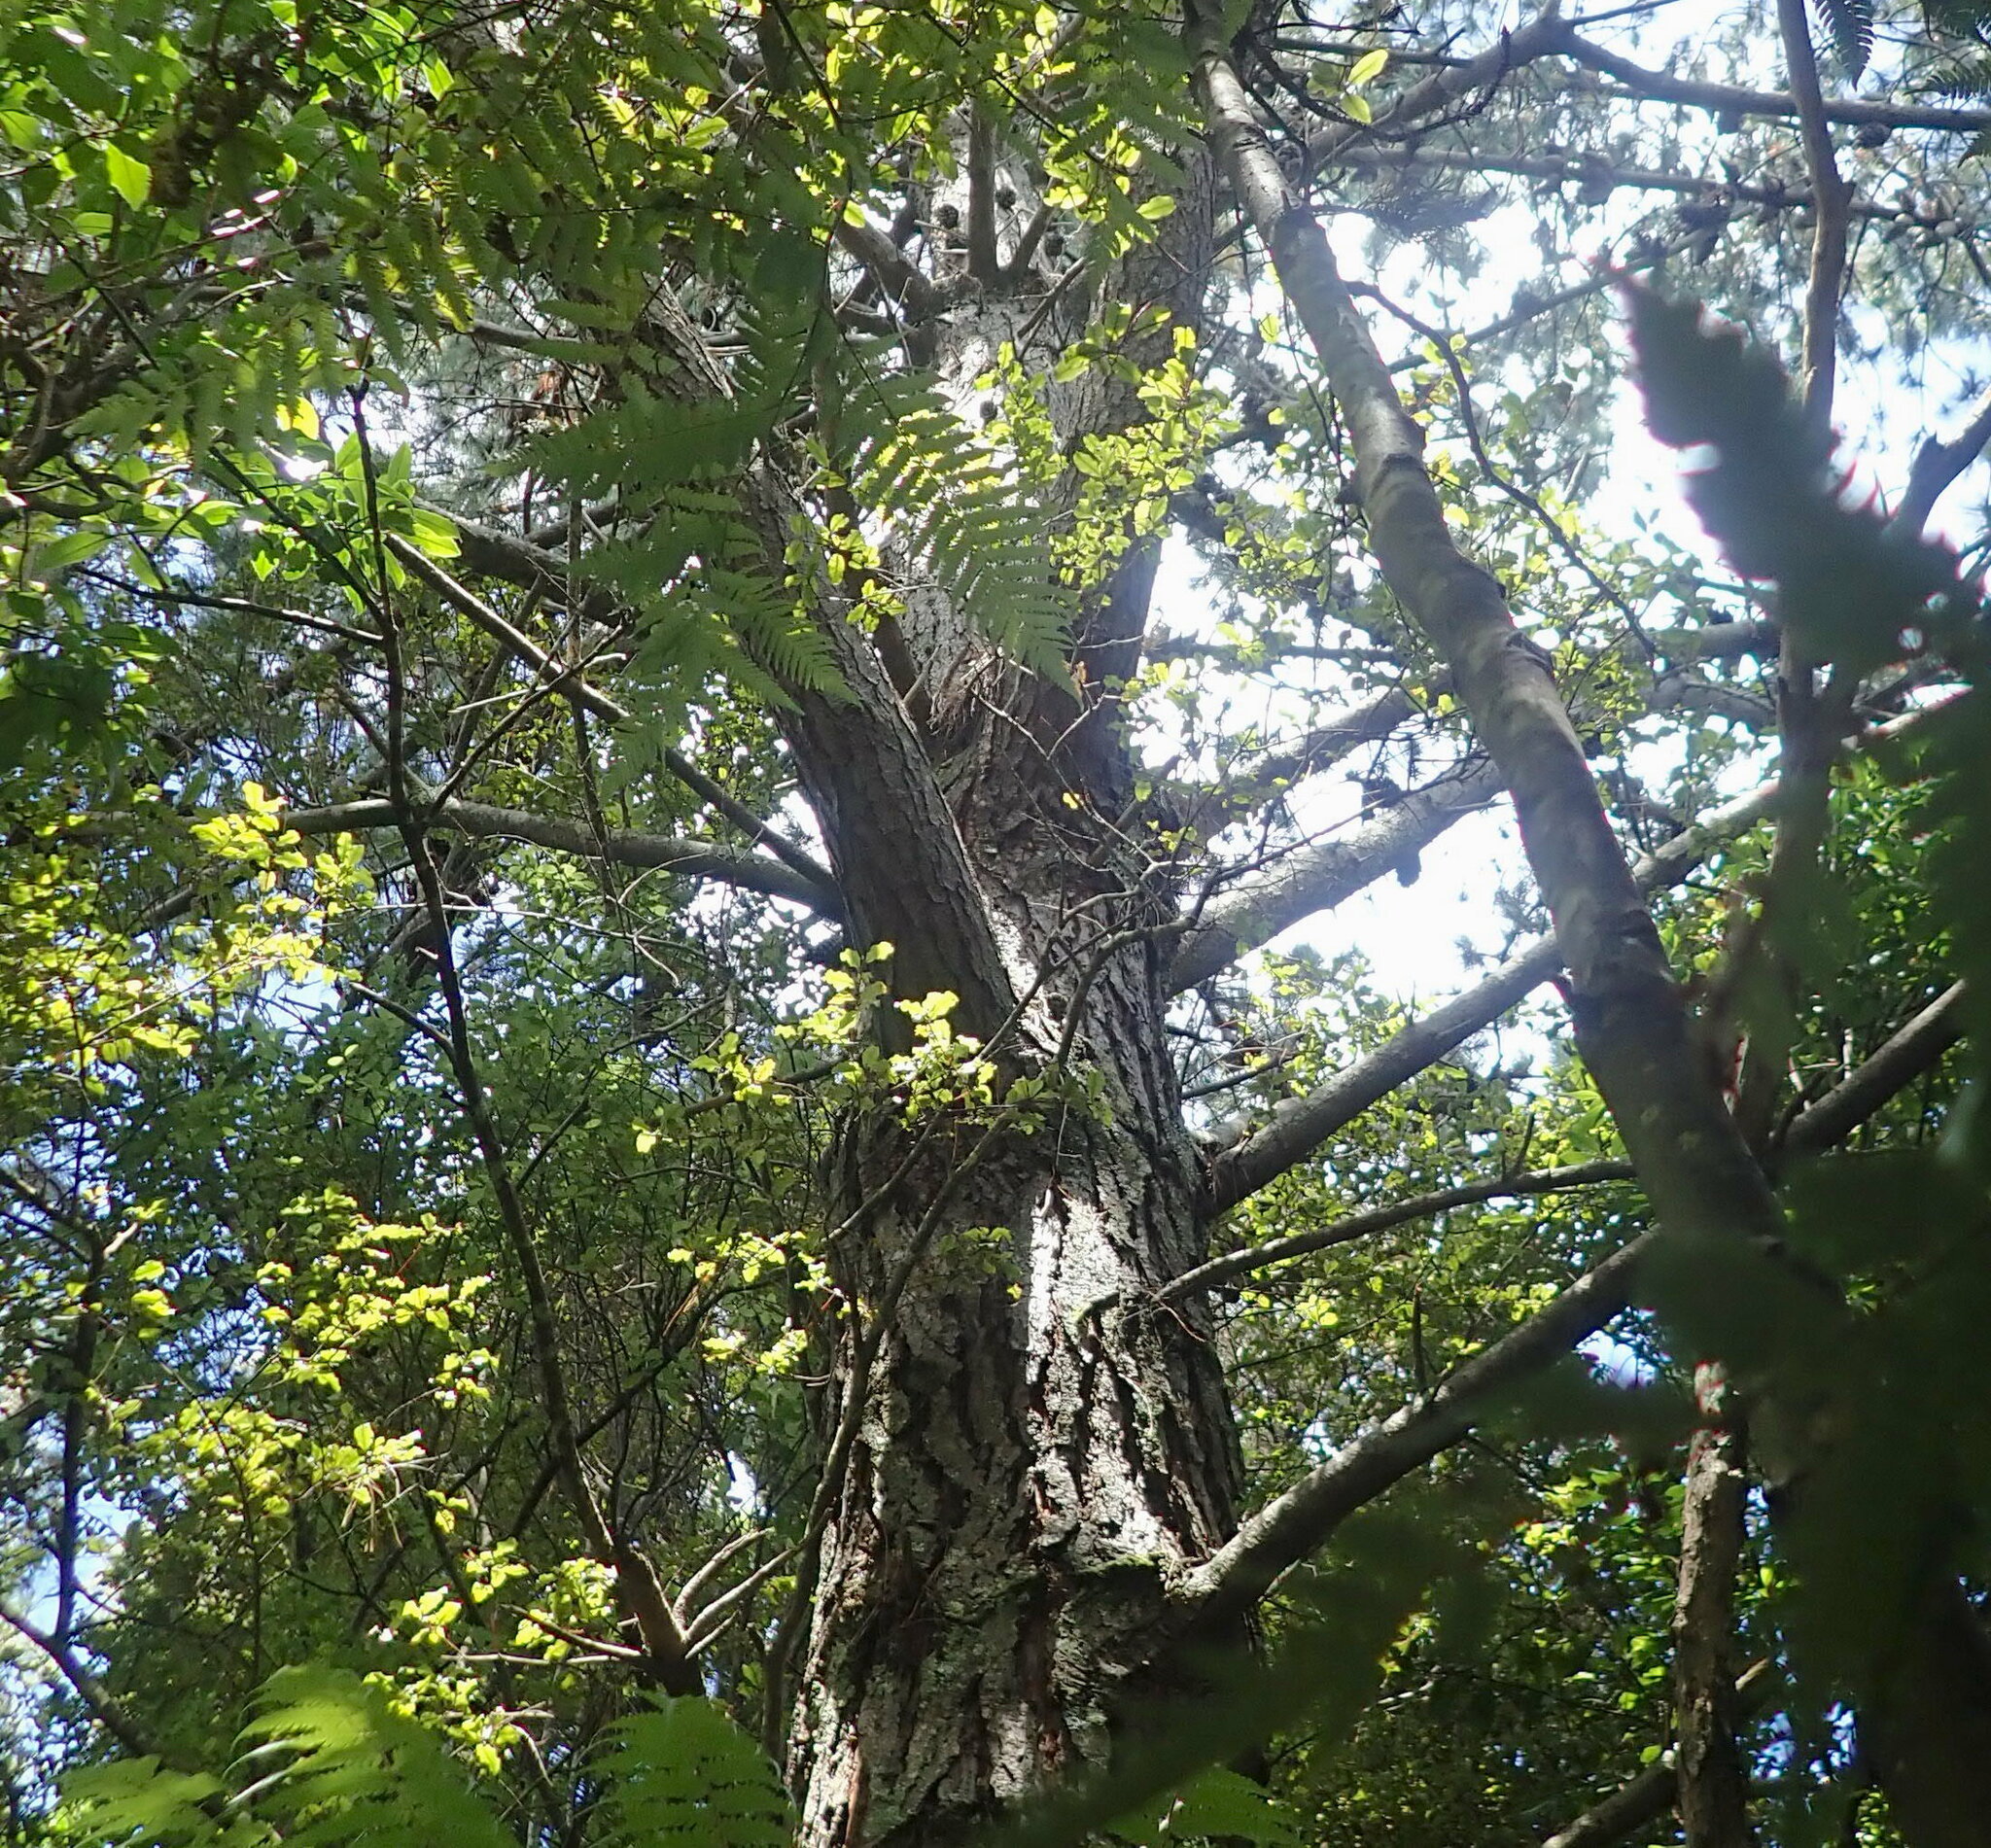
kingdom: Plantae
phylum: Tracheophyta
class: Magnoliopsida
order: Ericales
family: Primulaceae
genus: Myrsine
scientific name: Myrsine australis
